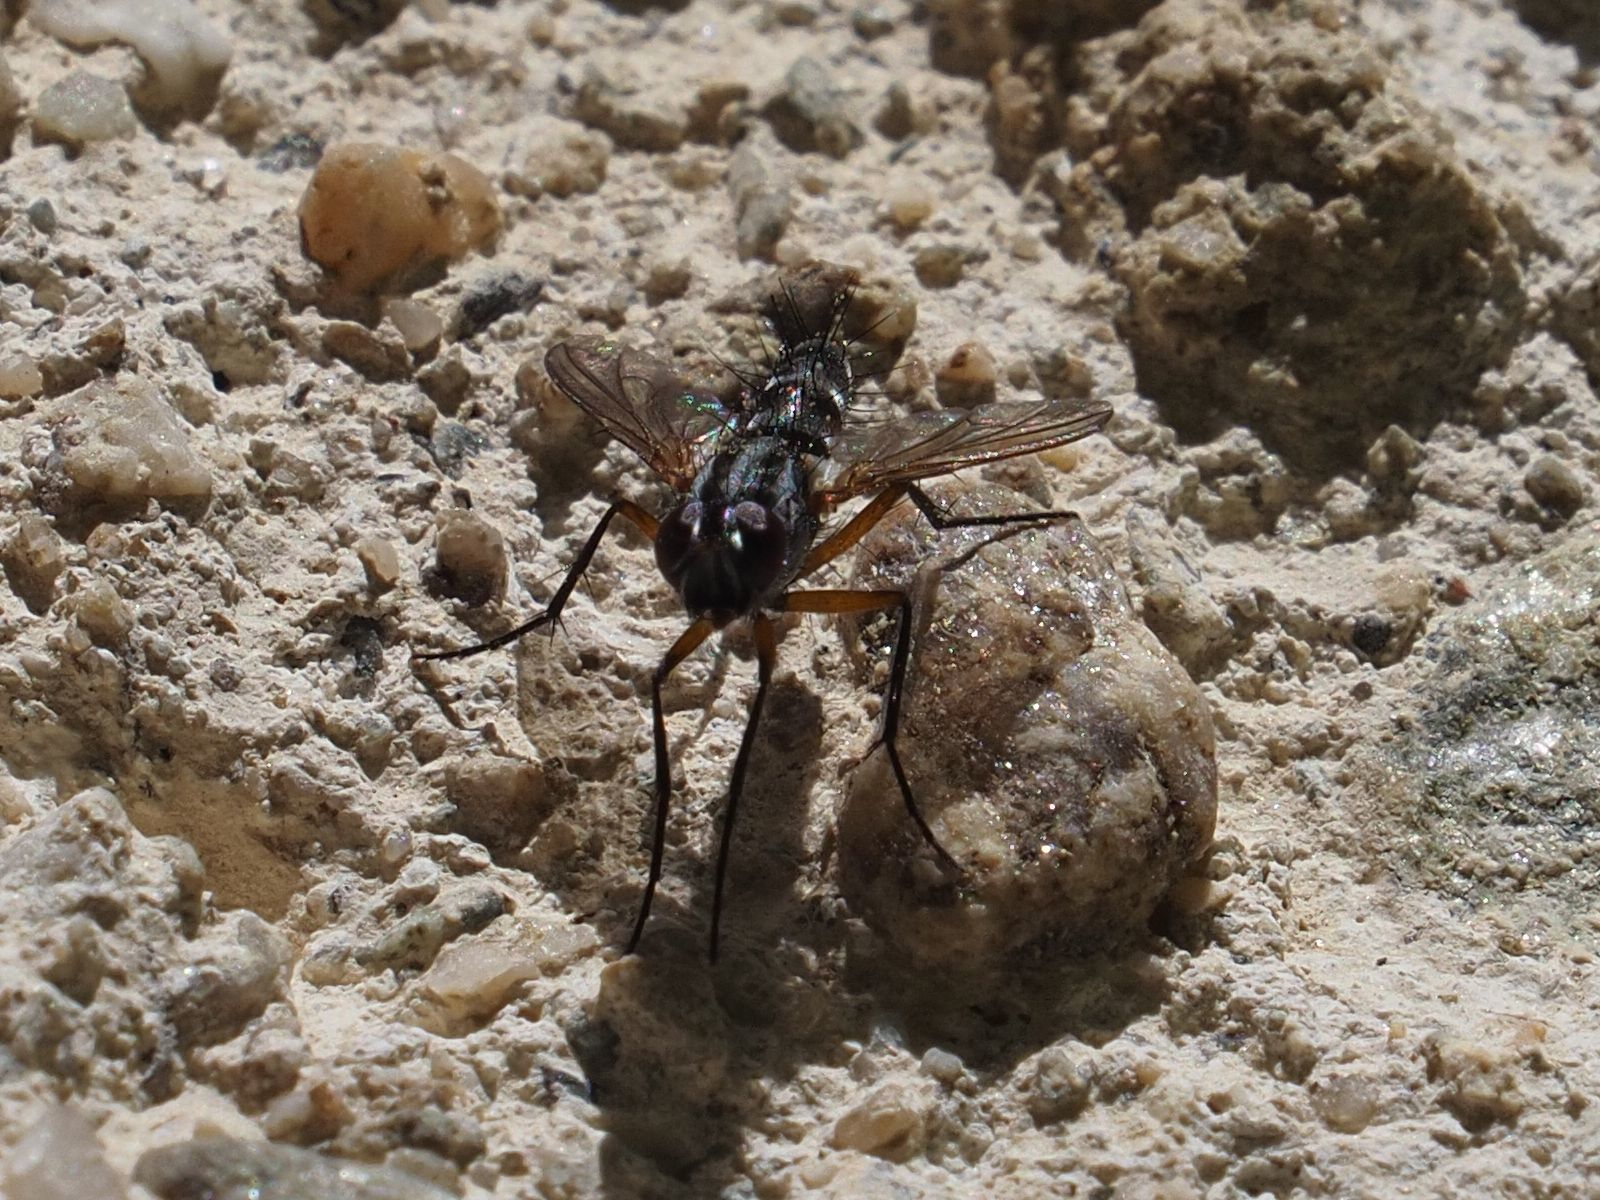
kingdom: Animalia
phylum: Arthropoda
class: Insecta
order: Diptera
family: Tachinidae
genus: Mintho
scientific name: Mintho rufiventris
